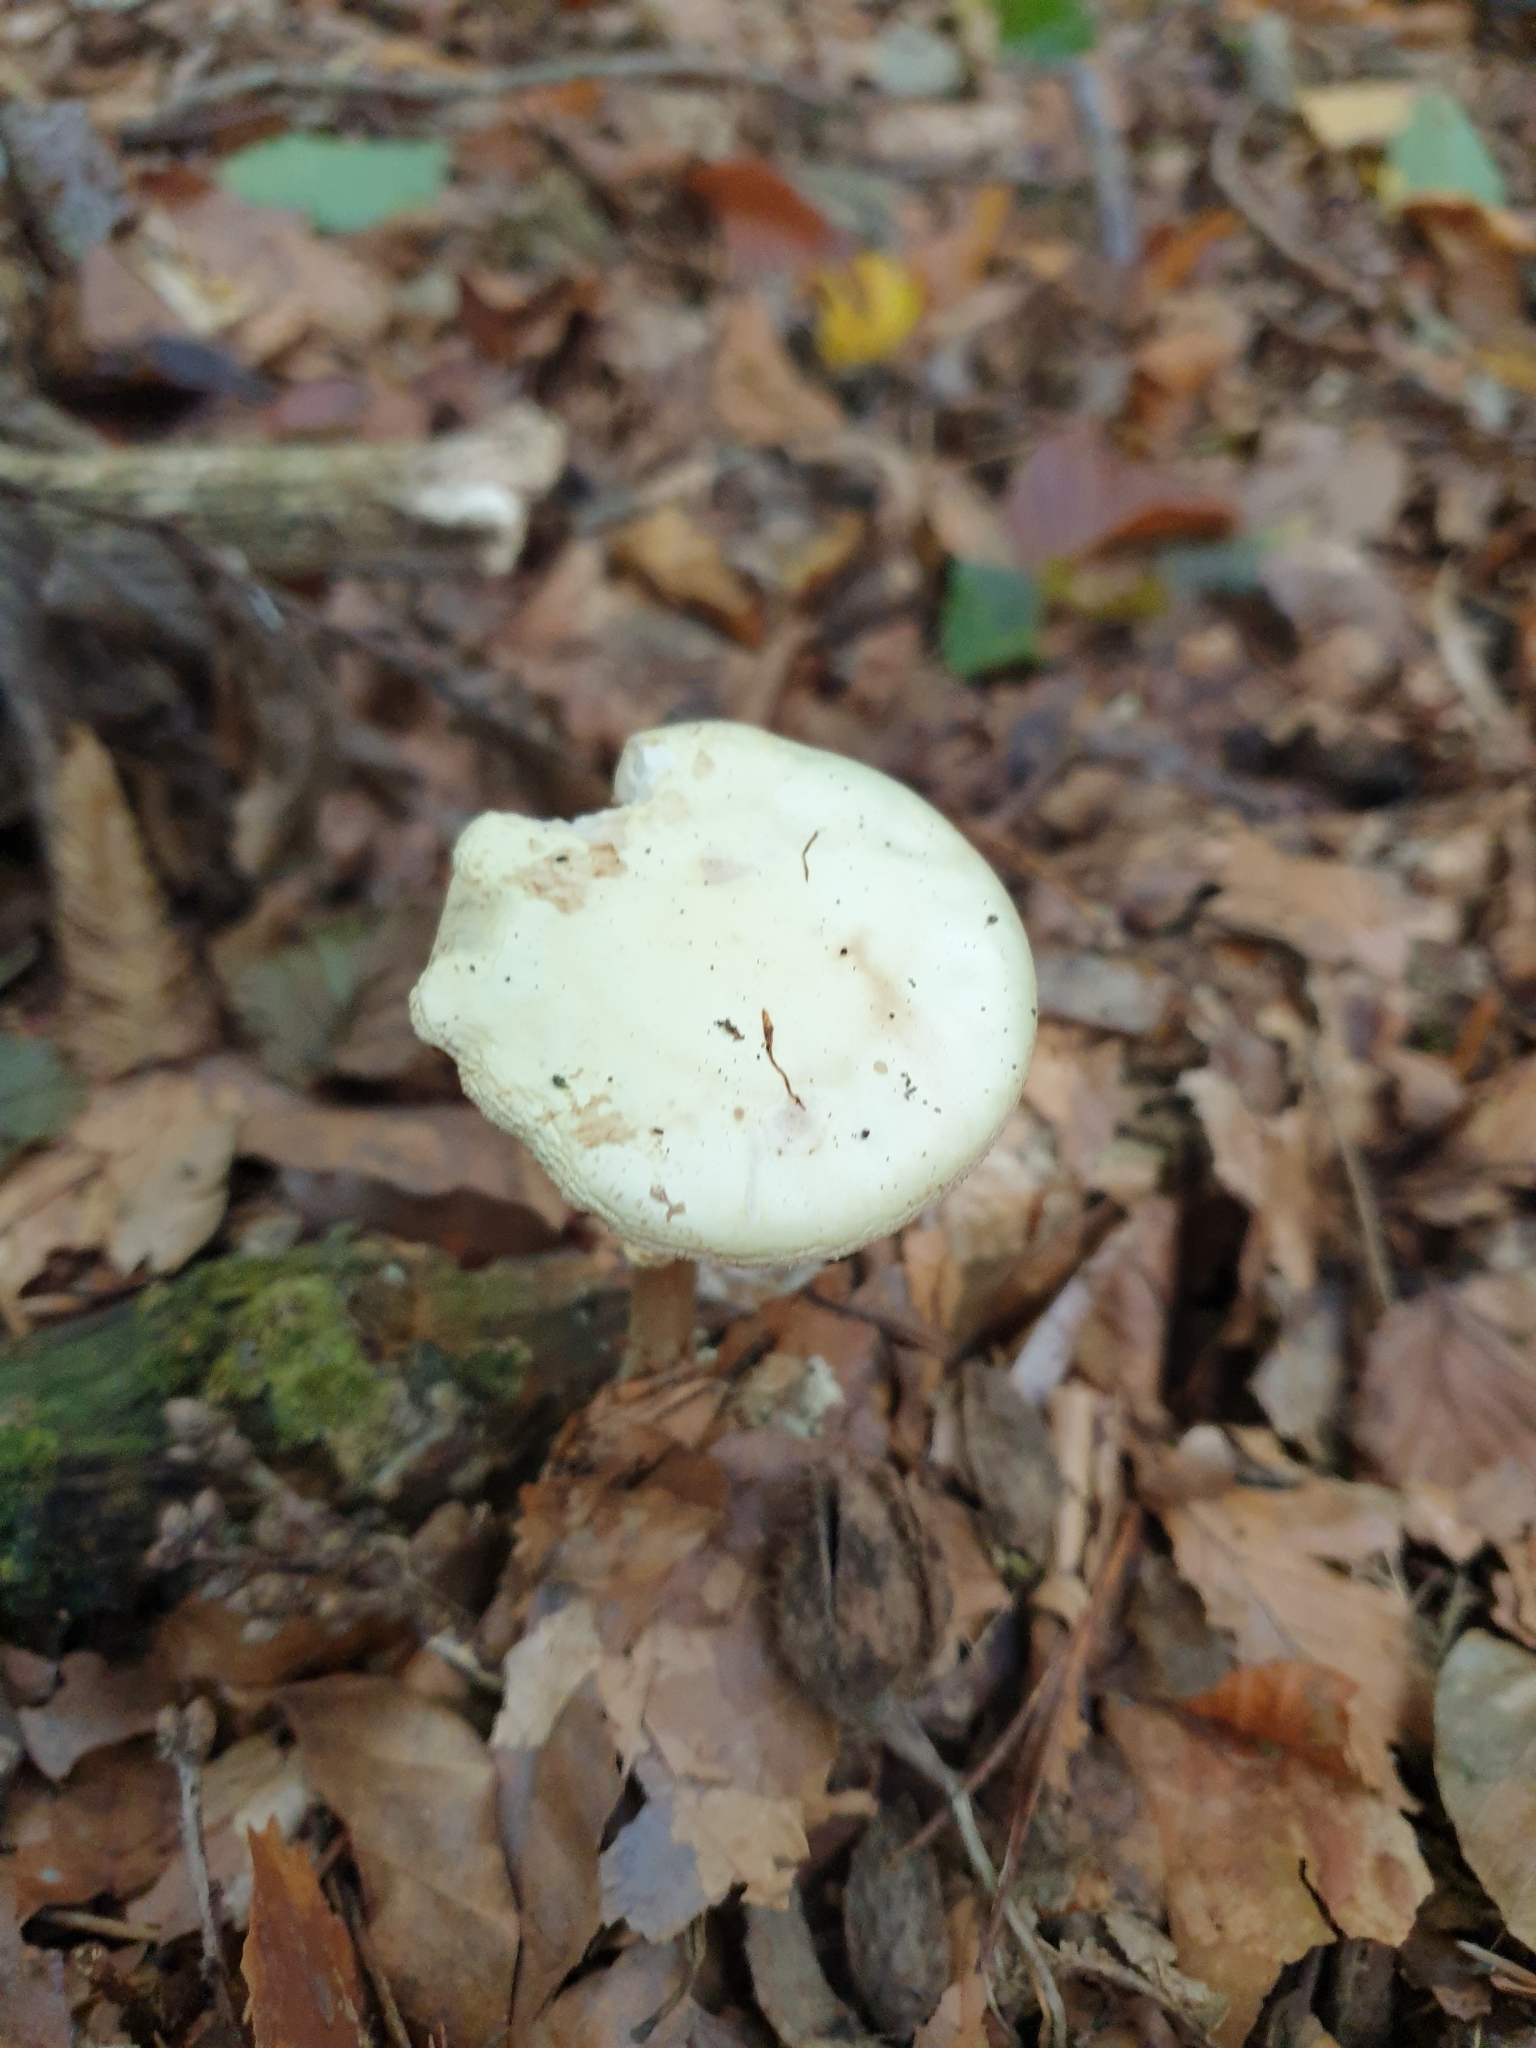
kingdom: Fungi
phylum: Basidiomycota
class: Agaricomycetes
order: Agaricales
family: Amanitaceae
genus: Amanita
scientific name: Amanita citrina
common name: False death-cap
